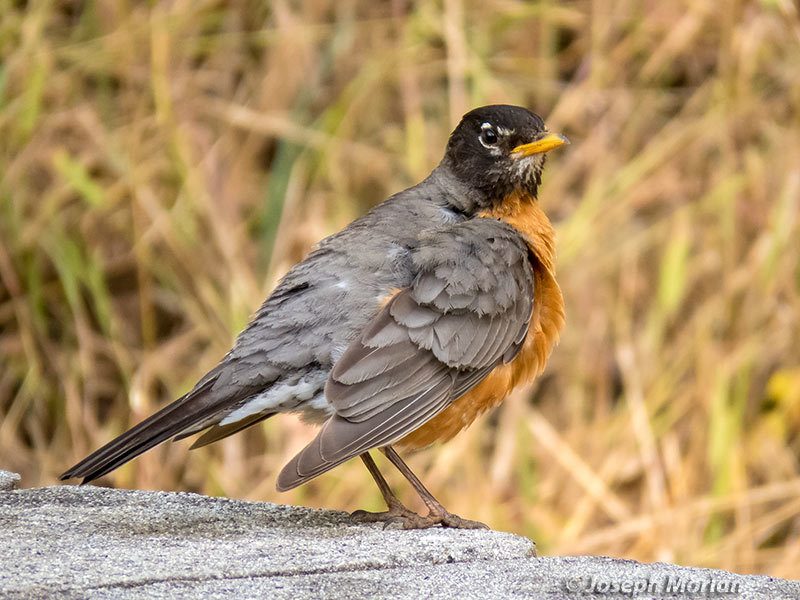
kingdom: Animalia
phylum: Chordata
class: Aves
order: Passeriformes
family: Turdidae
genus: Turdus
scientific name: Turdus migratorius
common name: American robin
